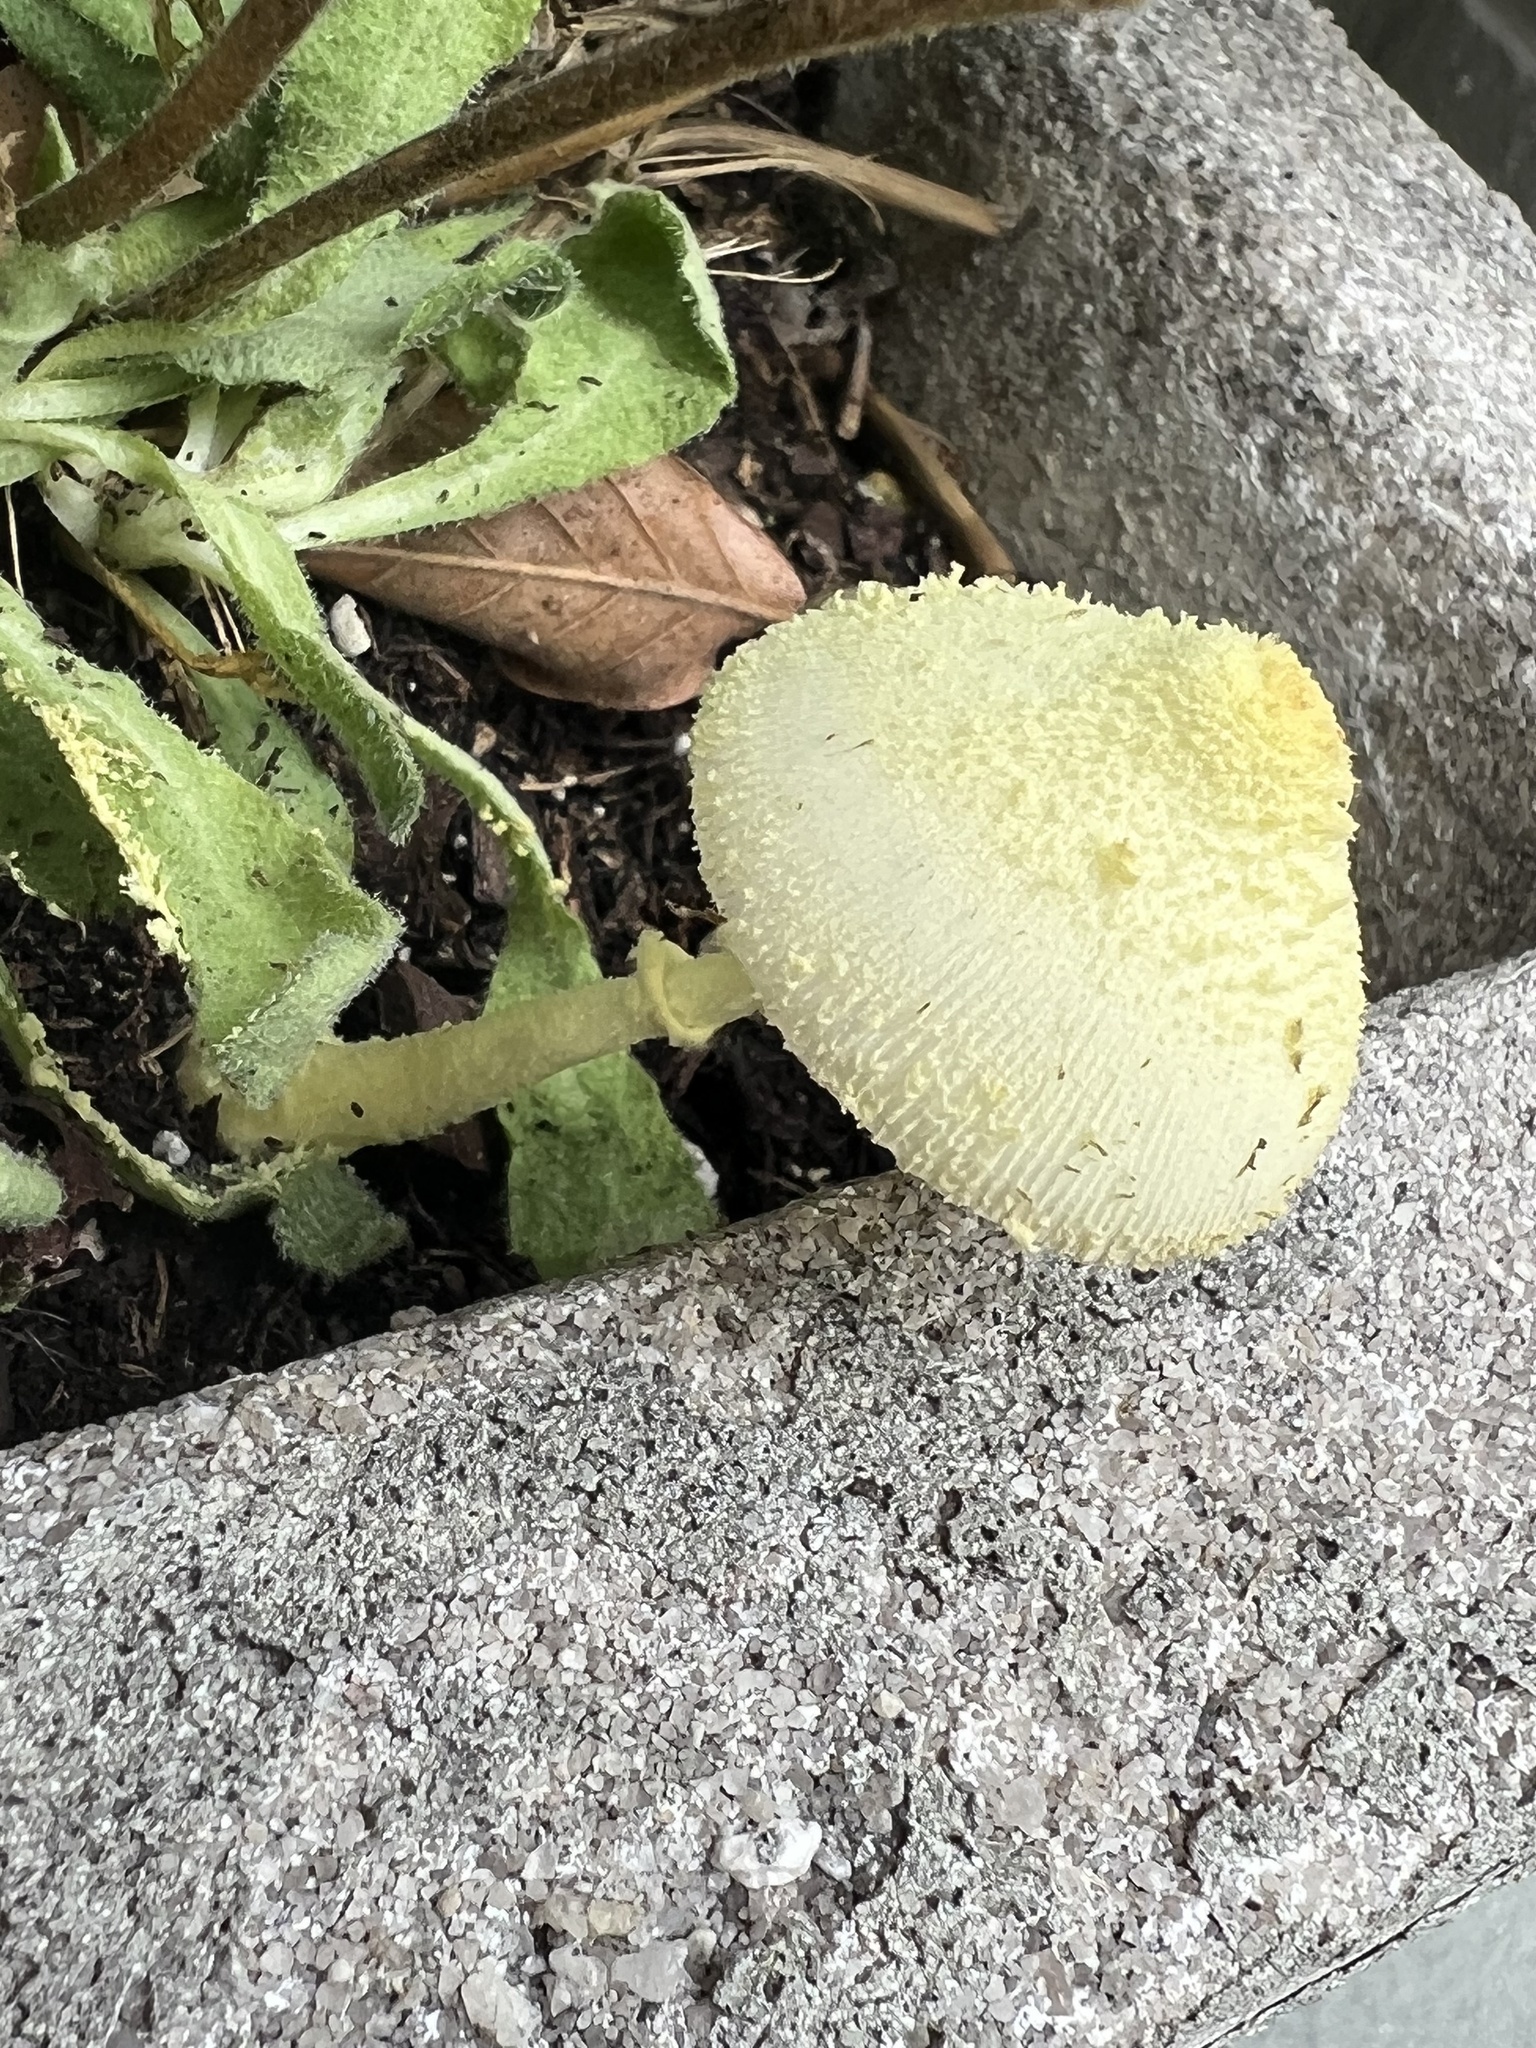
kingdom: Fungi
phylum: Basidiomycota
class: Agaricomycetes
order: Agaricales
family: Agaricaceae
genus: Leucocoprinus
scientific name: Leucocoprinus birnbaumii
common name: Plantpot dapperling
